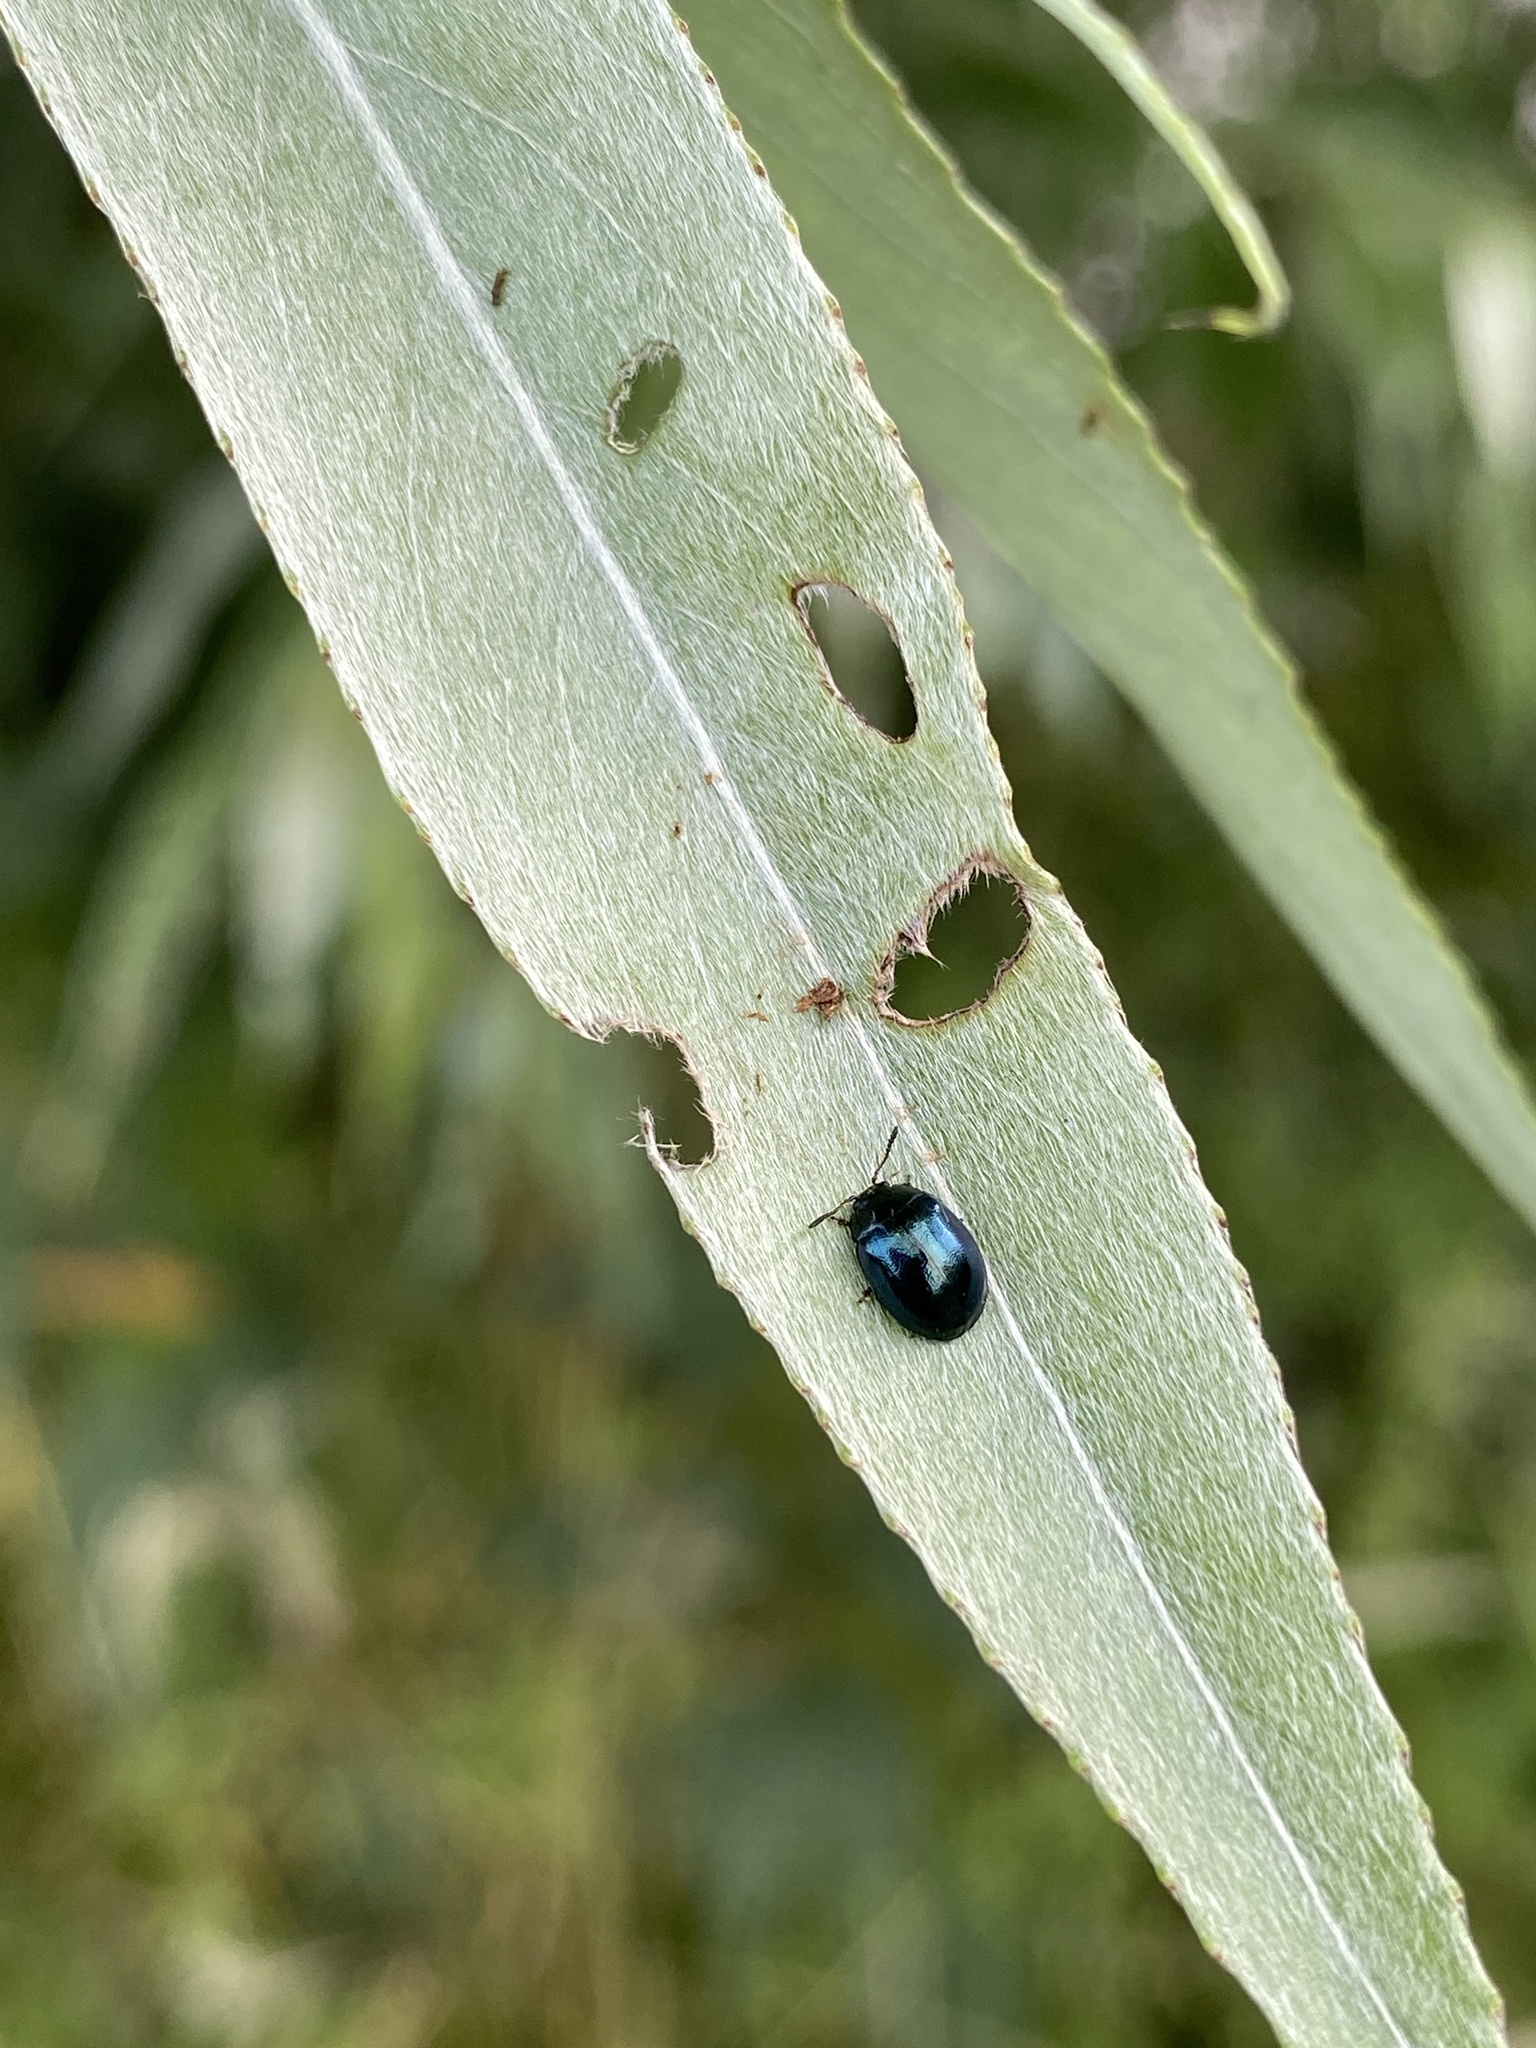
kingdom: Animalia
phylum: Arthropoda
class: Insecta
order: Coleoptera
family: Chrysomelidae
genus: Plagiodera
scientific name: Plagiodera versicolora
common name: Imported willow leaf beetle
